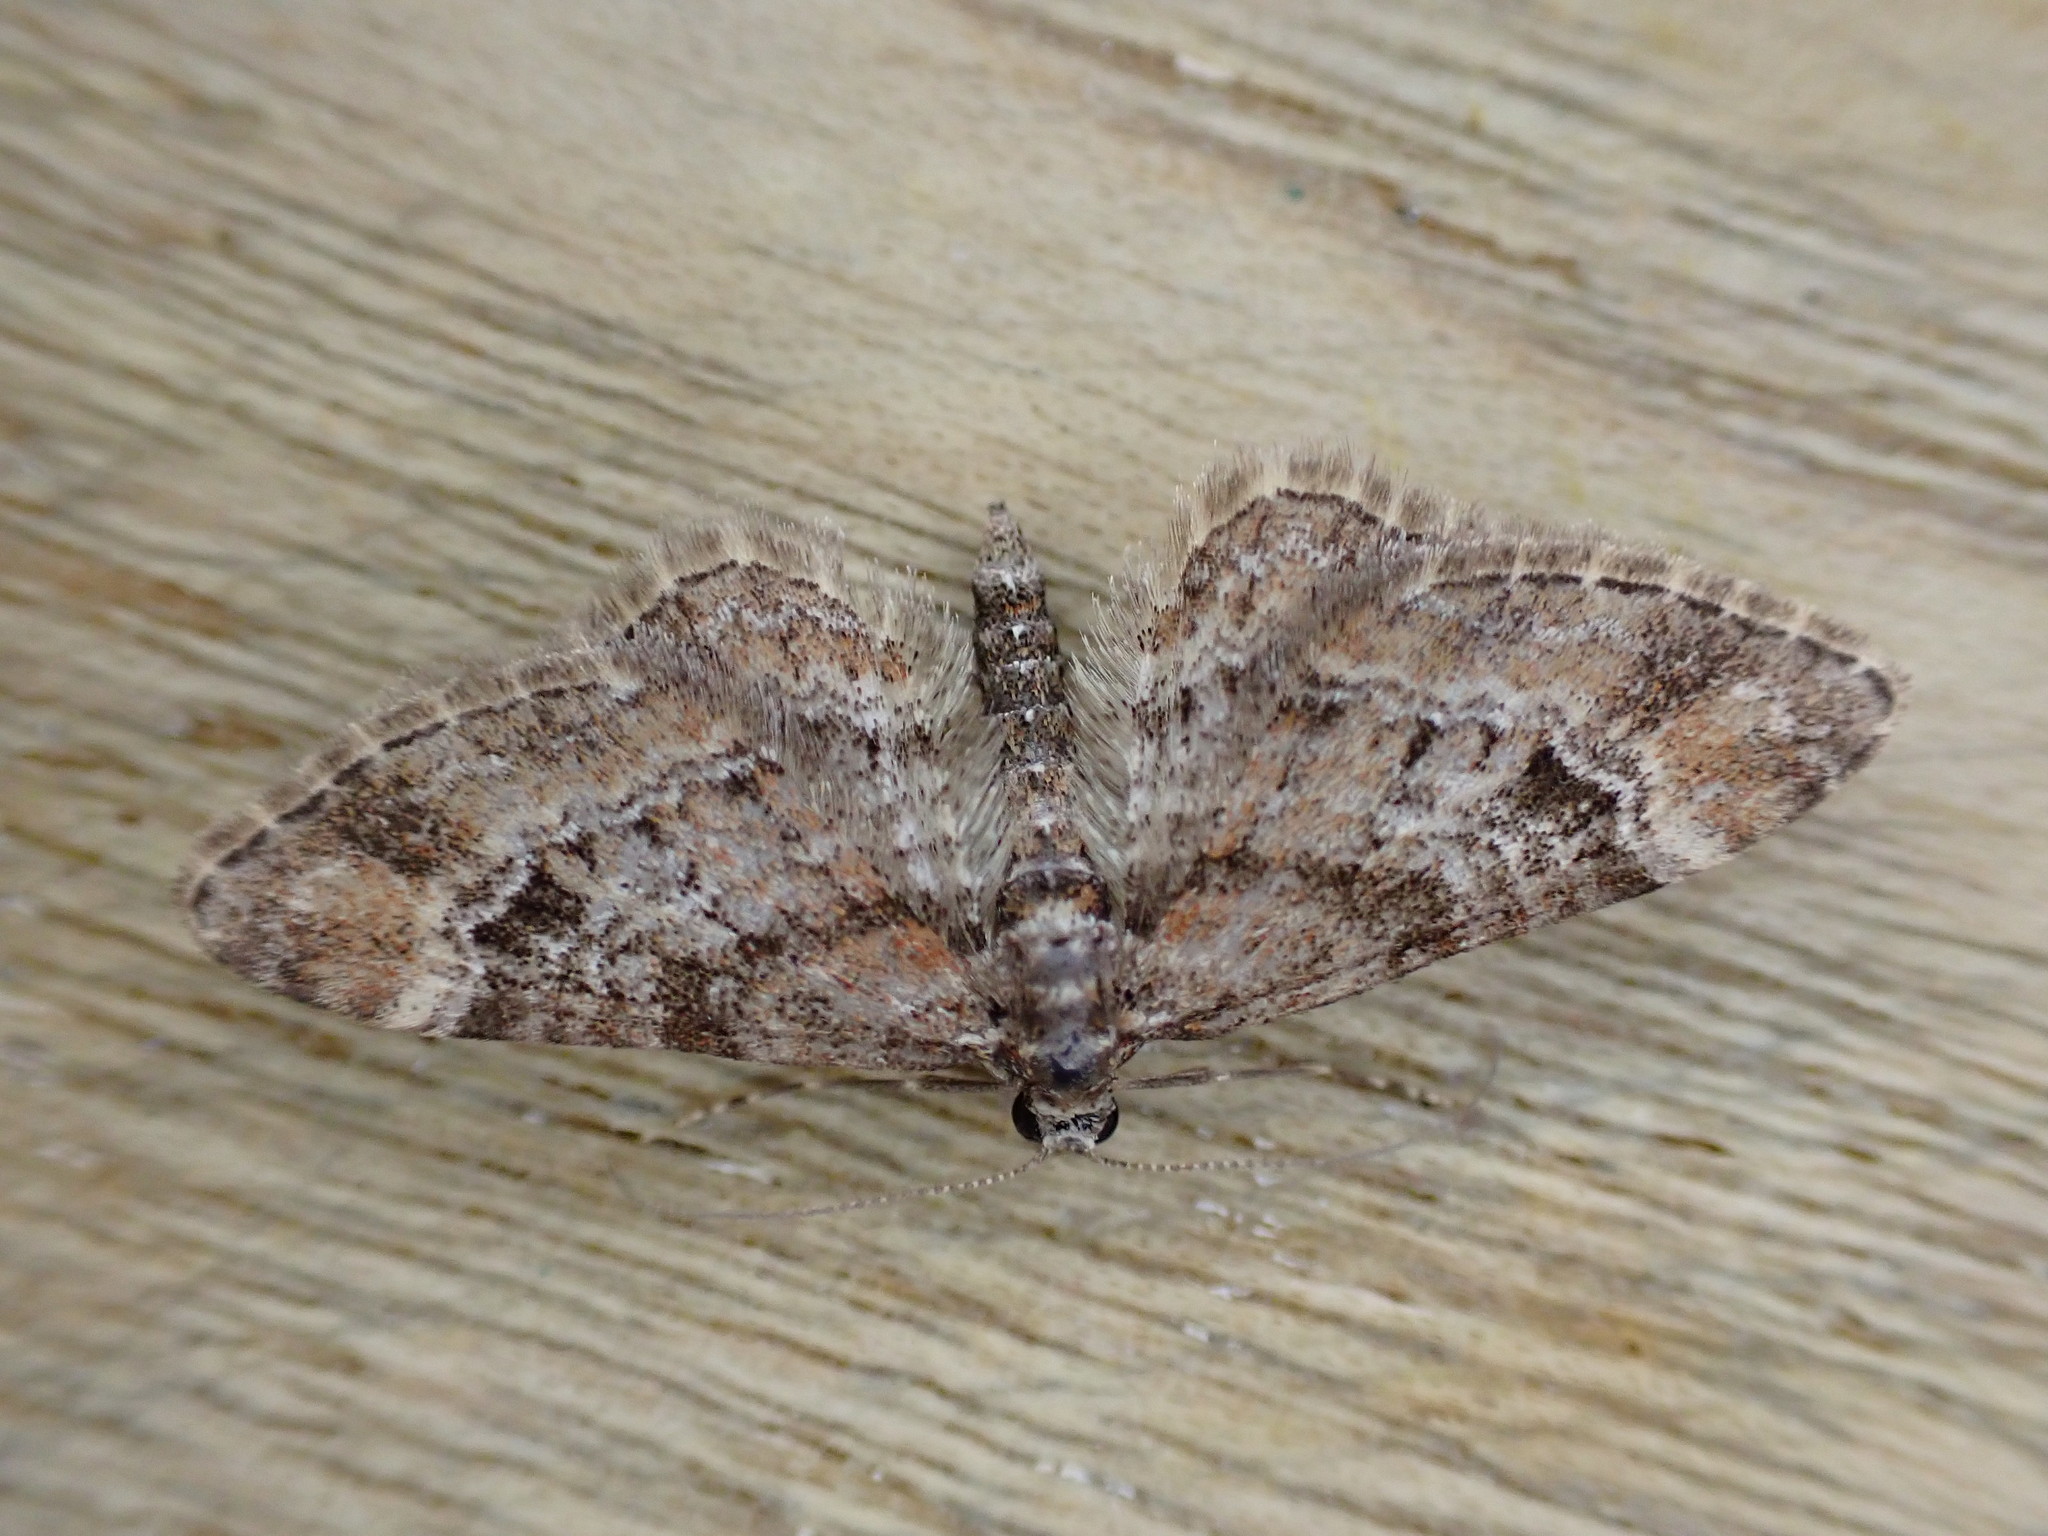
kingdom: Animalia
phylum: Arthropoda
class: Insecta
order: Lepidoptera
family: Geometridae
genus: Gymnoscelis
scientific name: Gymnoscelis rufifasciata
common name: Double-striped pug
